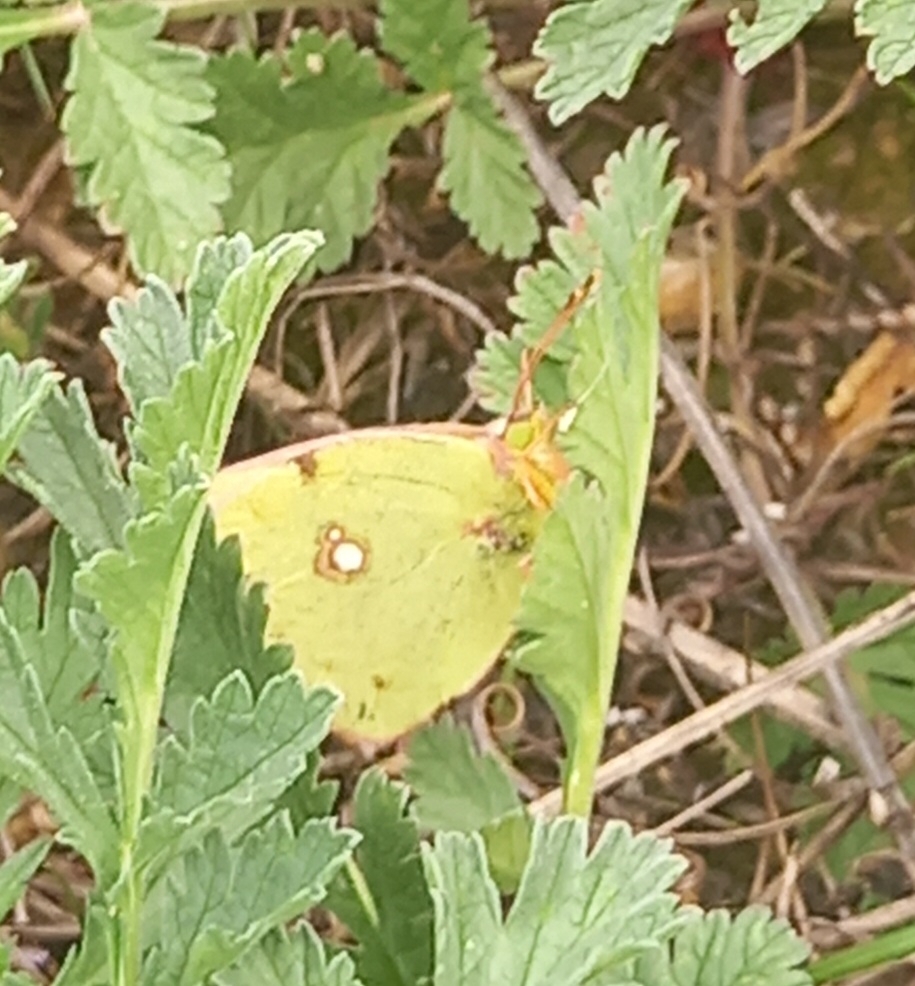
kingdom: Animalia
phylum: Arthropoda
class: Insecta
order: Lepidoptera
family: Pieridae
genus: Colias
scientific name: Colias croceus
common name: Clouded yellow
